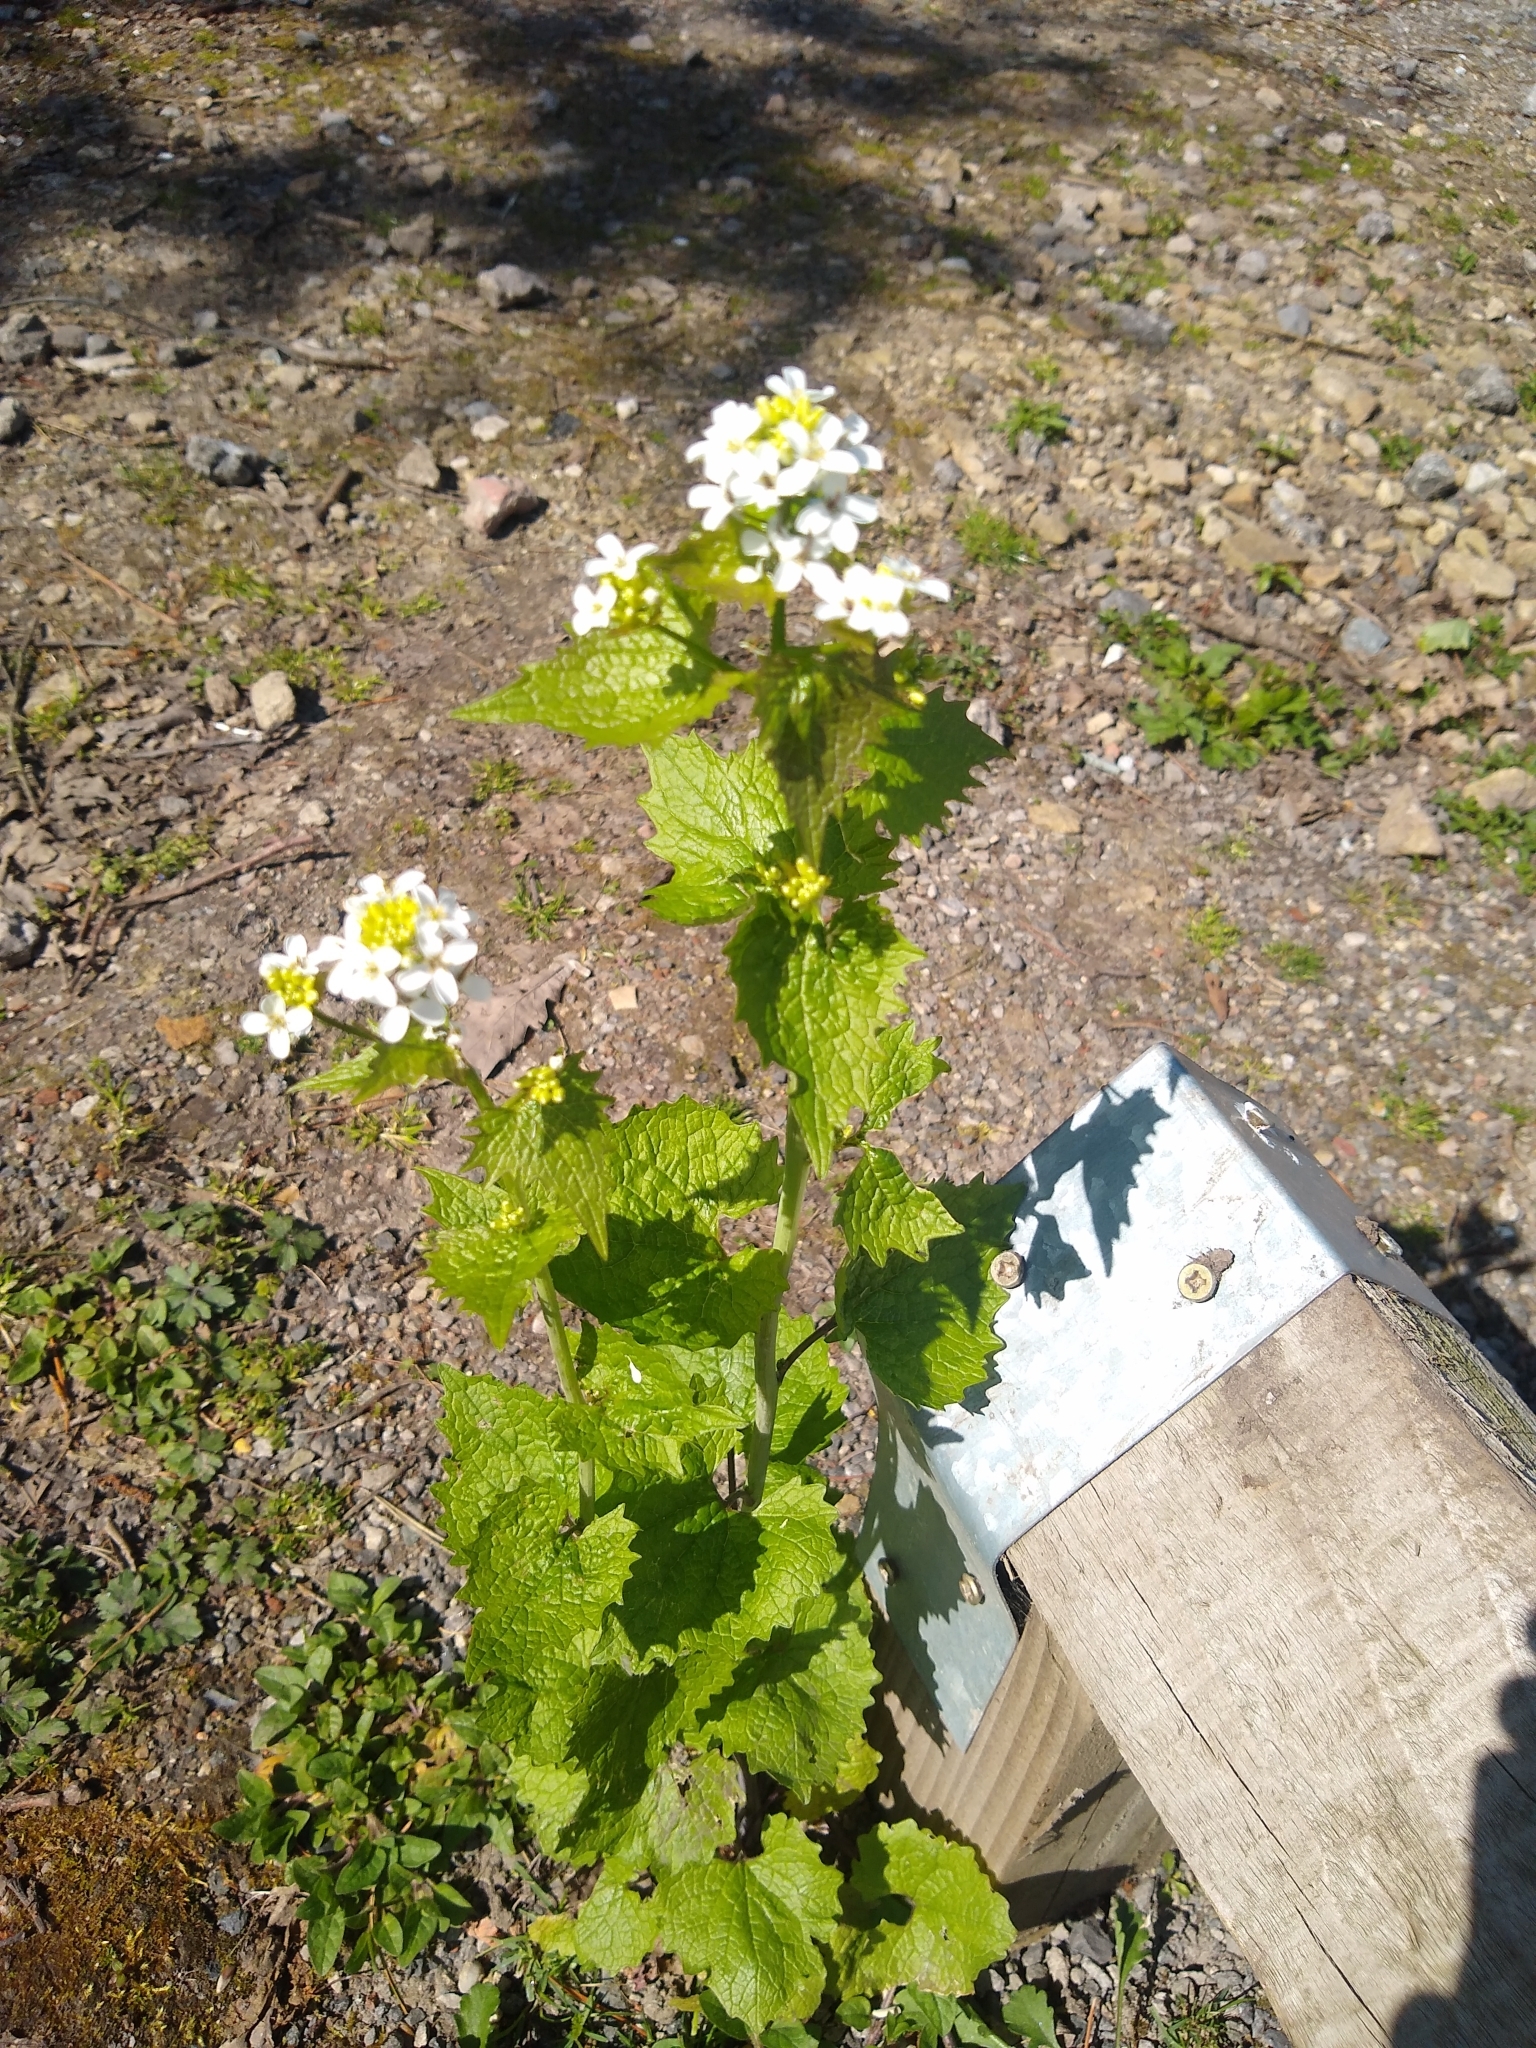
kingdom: Plantae
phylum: Tracheophyta
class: Magnoliopsida
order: Brassicales
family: Brassicaceae
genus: Alliaria
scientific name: Alliaria petiolata
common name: Garlic mustard
